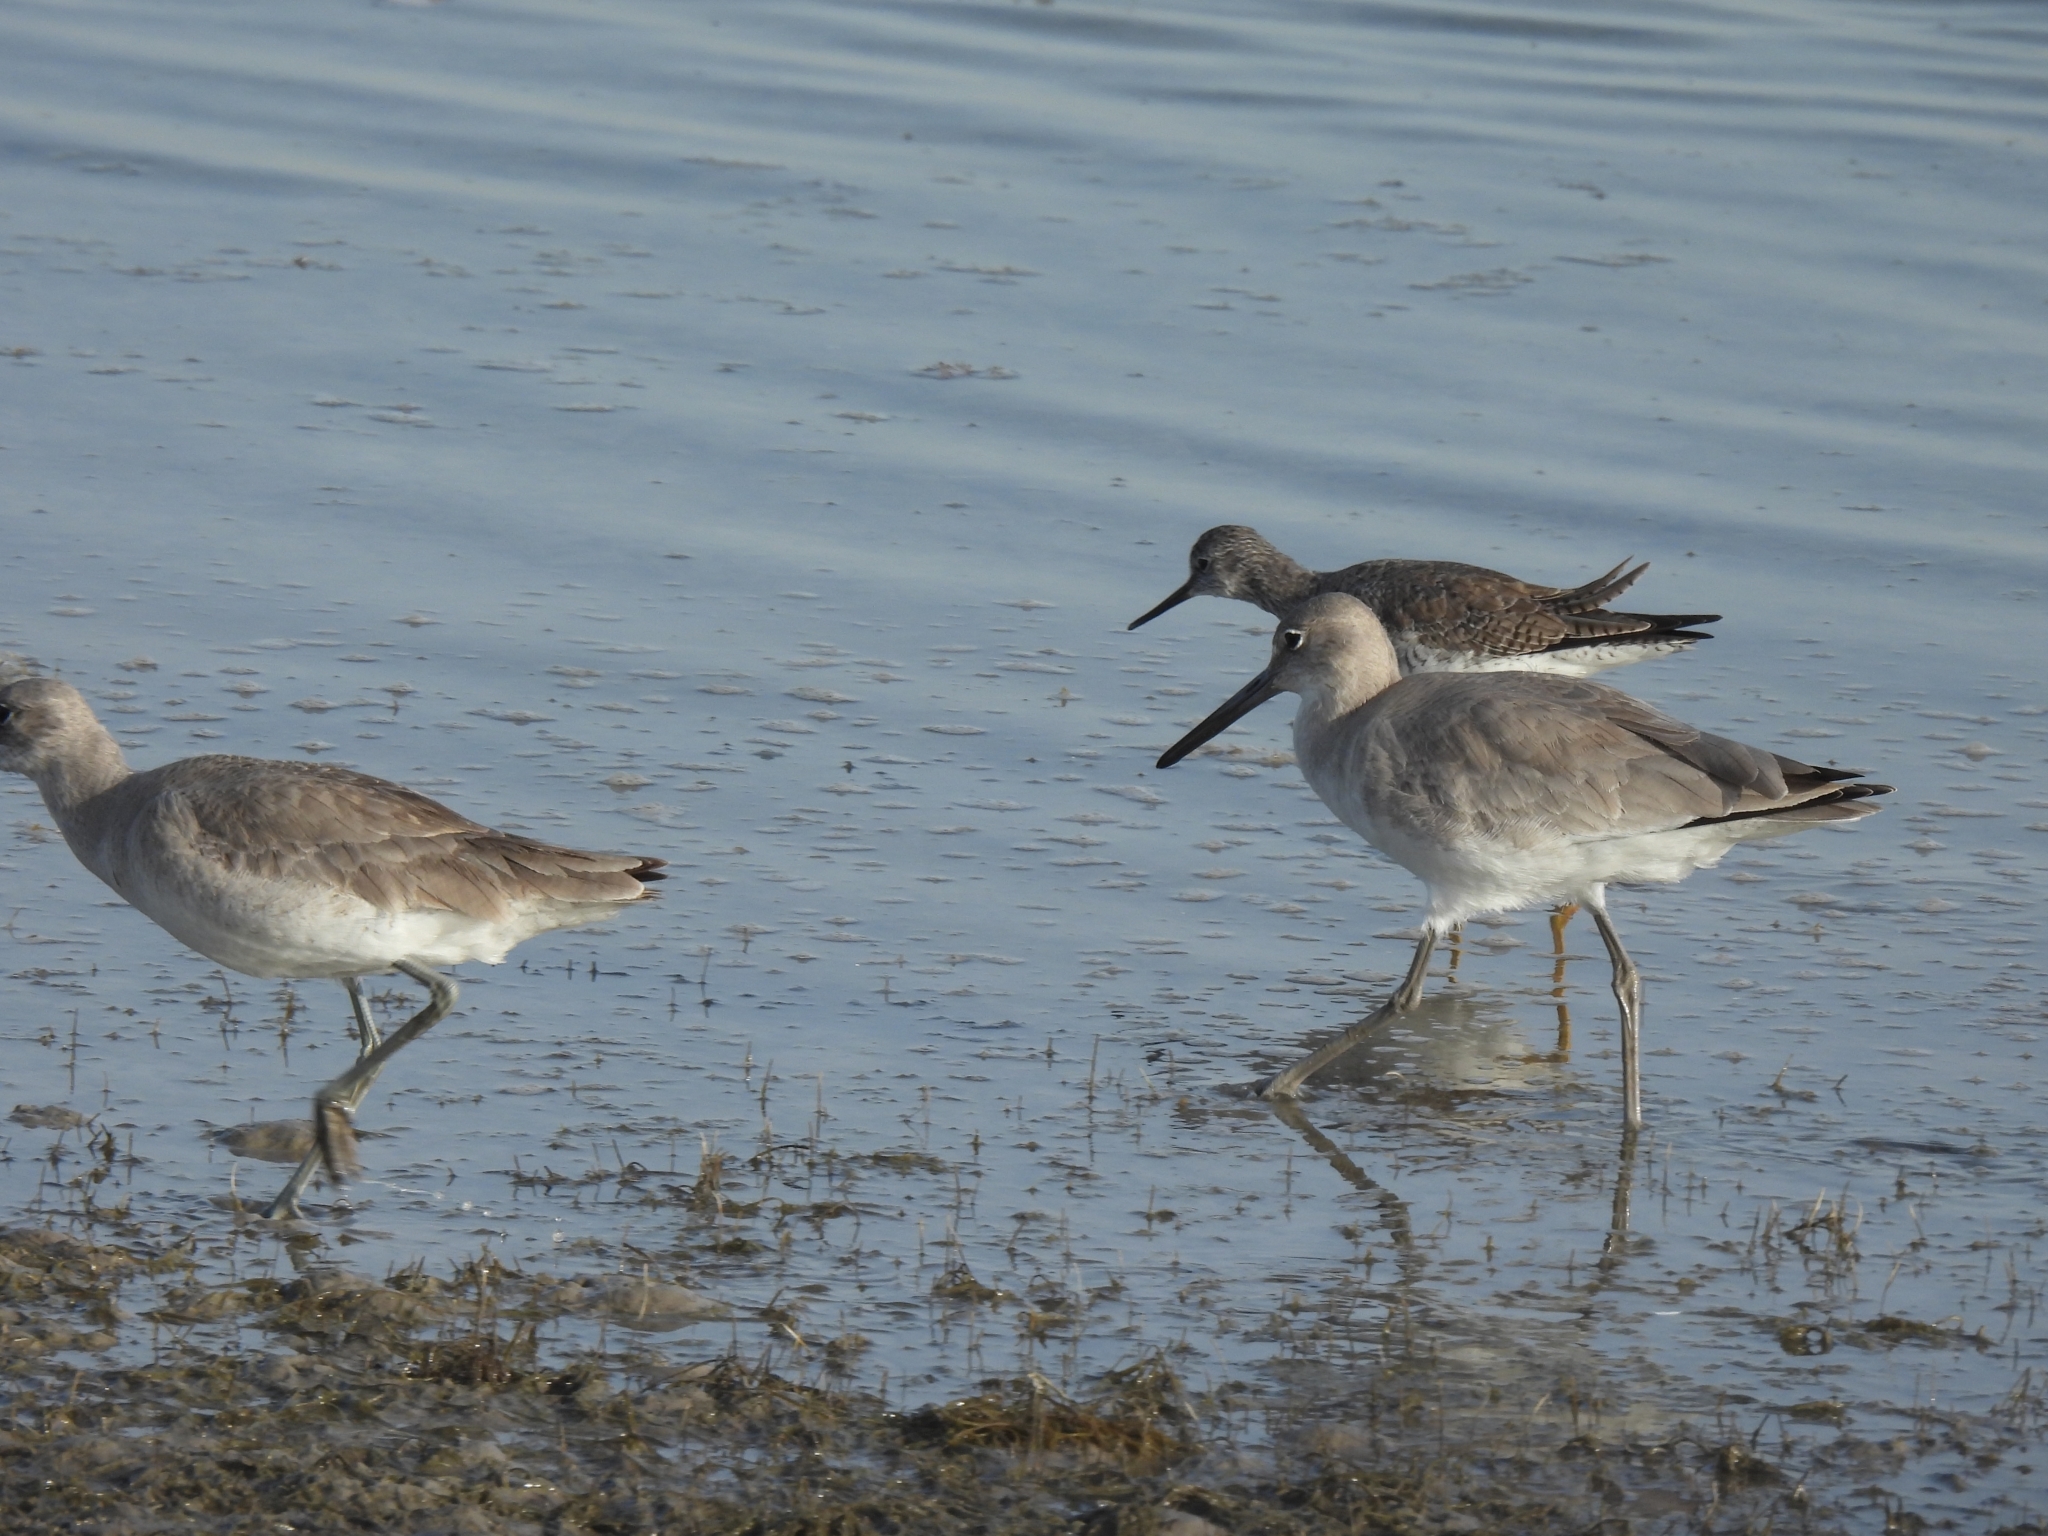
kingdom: Animalia
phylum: Chordata
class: Aves
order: Charadriiformes
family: Scolopacidae
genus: Tringa
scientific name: Tringa semipalmata
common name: Willet
